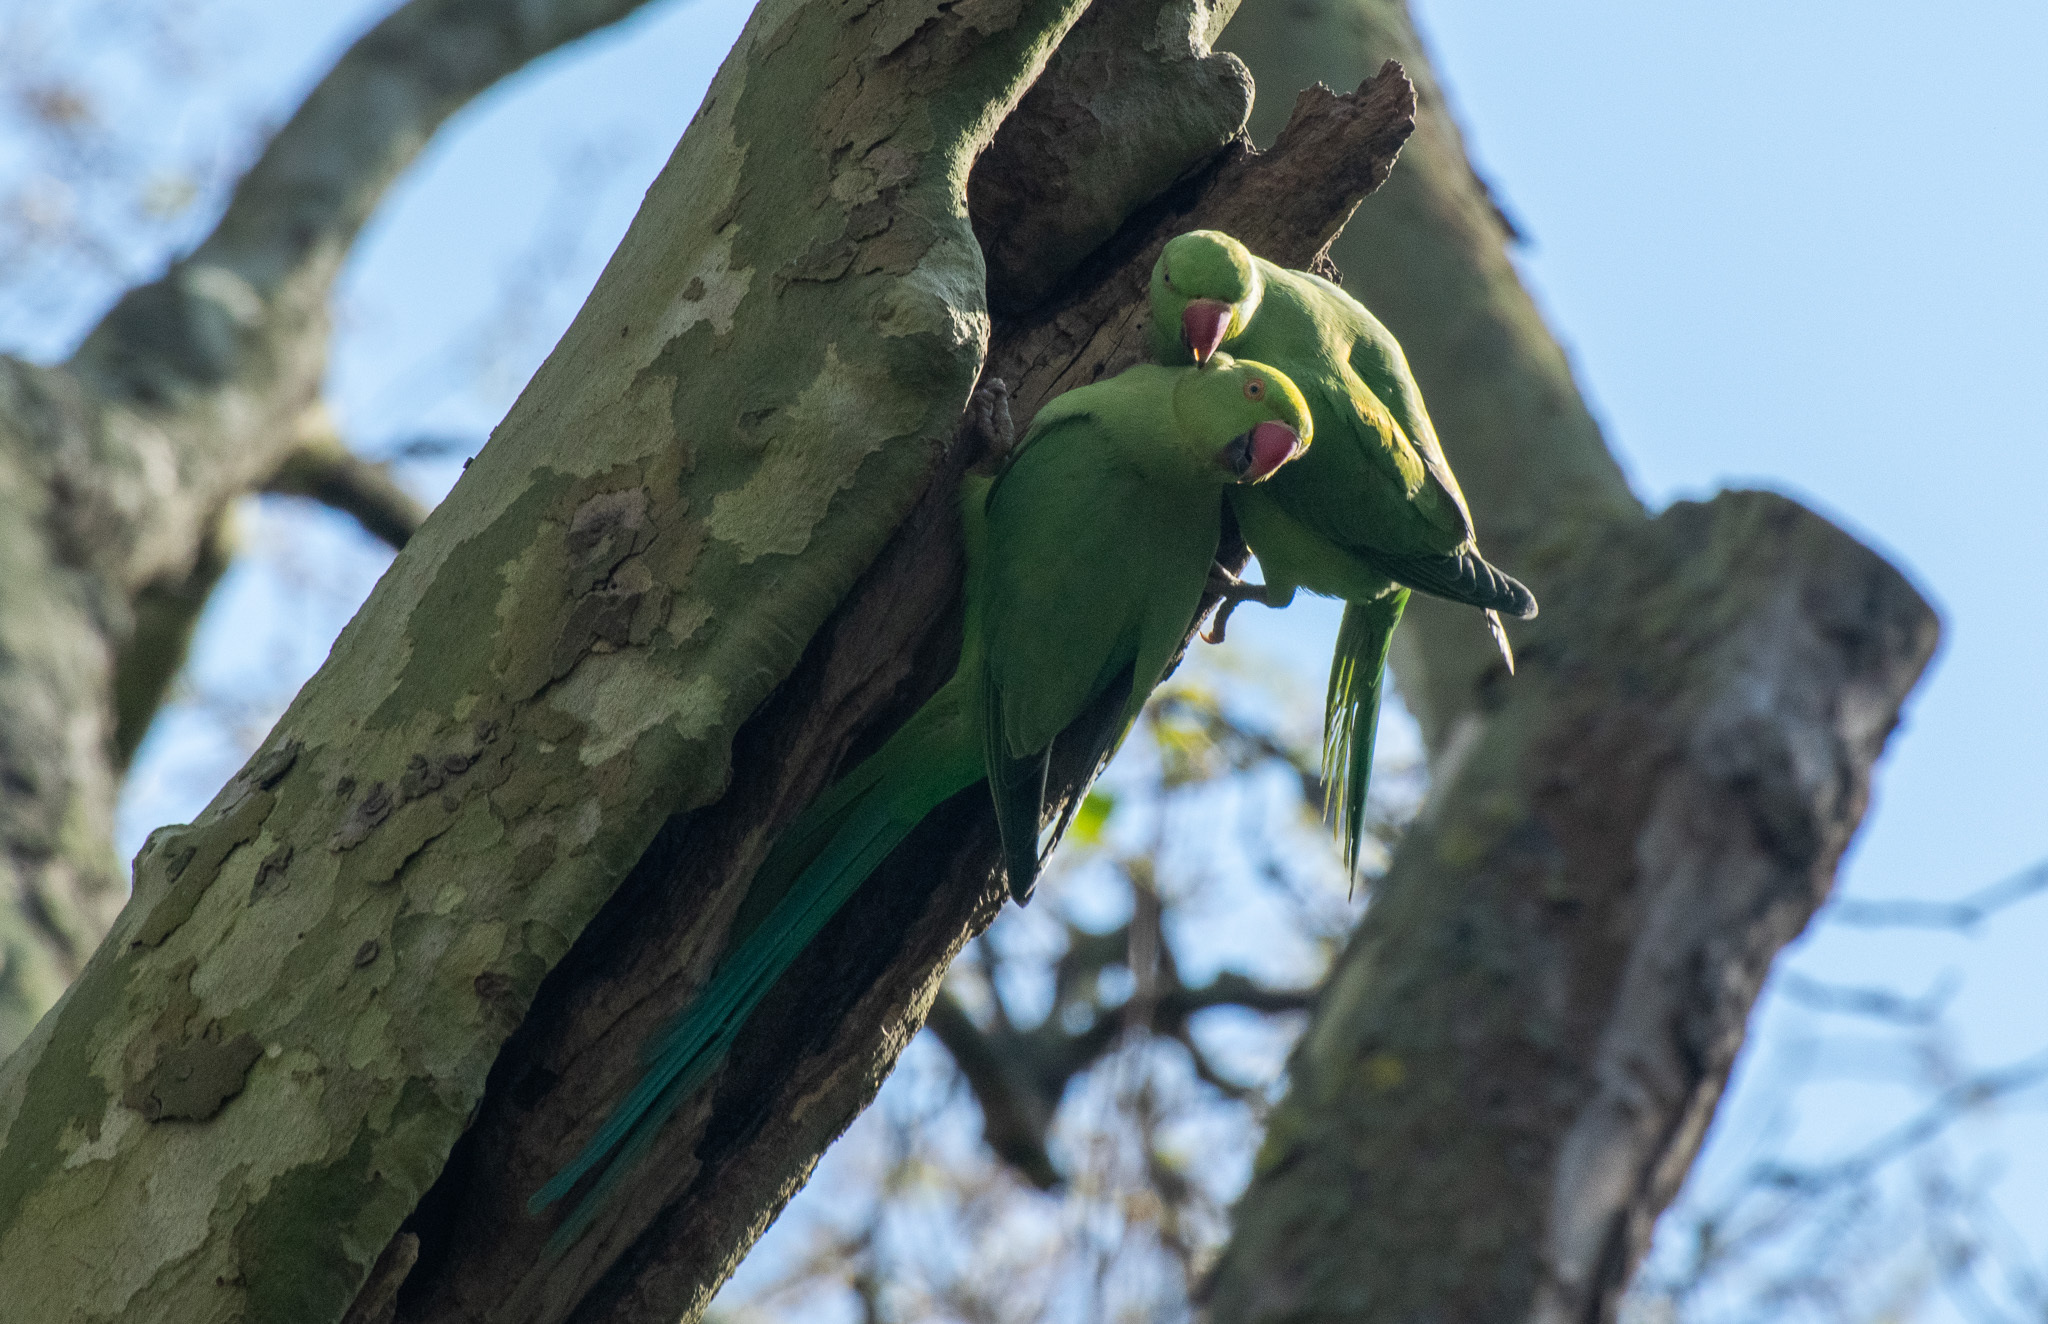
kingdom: Animalia
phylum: Chordata
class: Aves
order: Psittaciformes
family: Psittacidae
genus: Psittacula
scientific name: Psittacula krameri
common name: Rose-ringed parakeet
